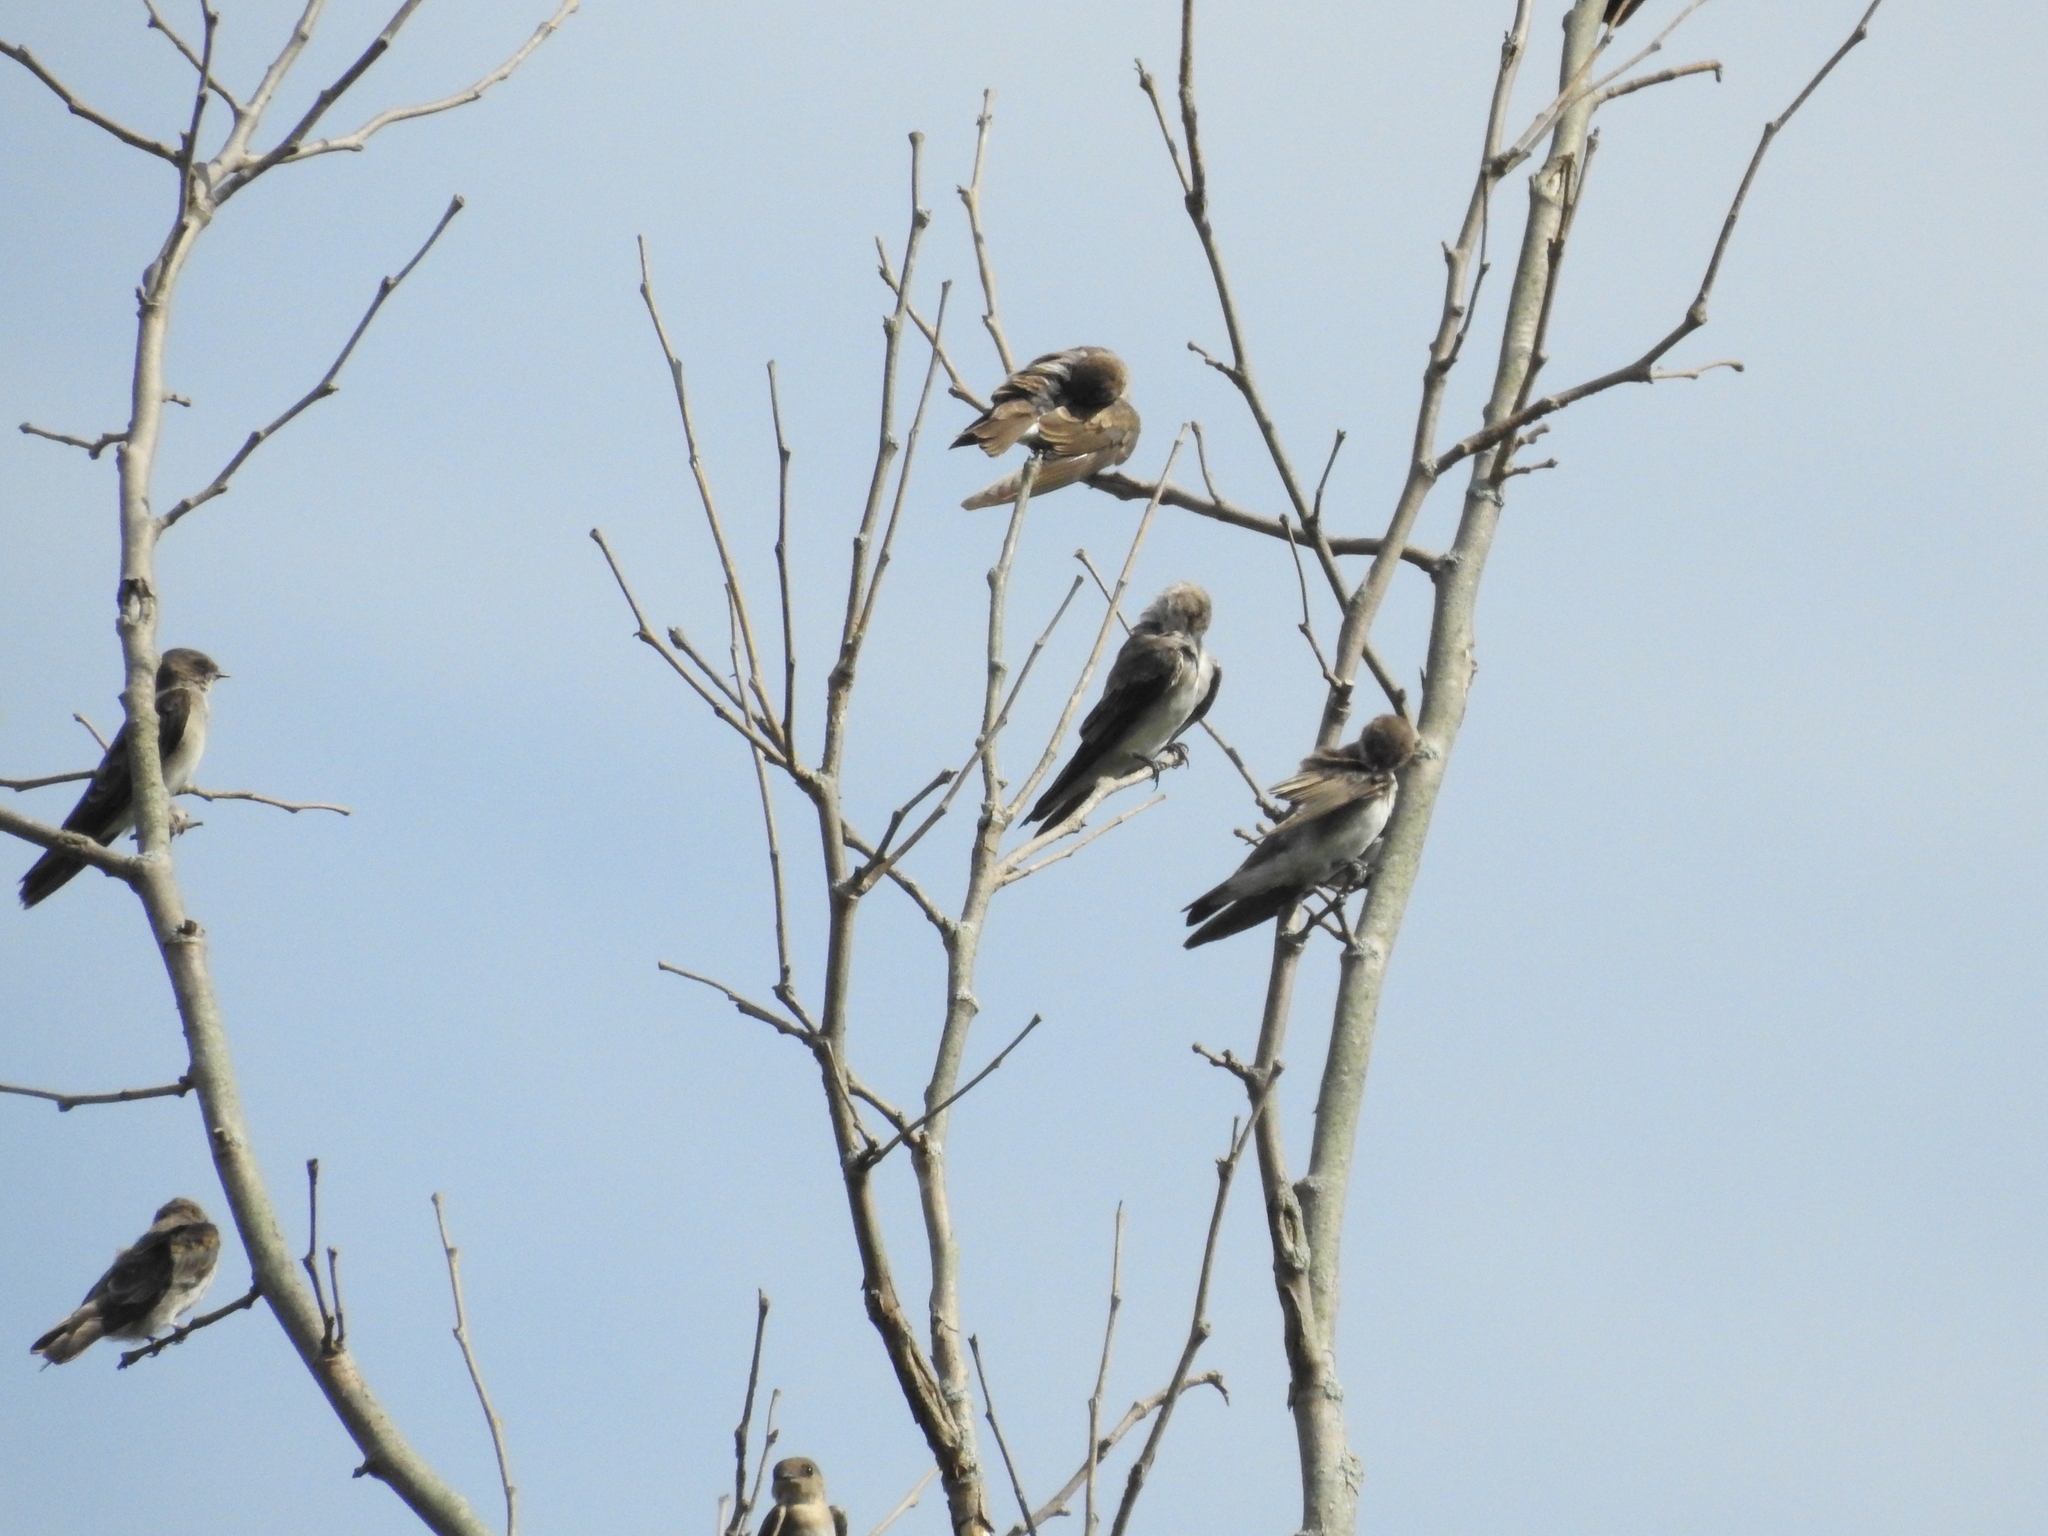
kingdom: Animalia
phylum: Chordata
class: Aves
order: Passeriformes
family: Hirundinidae
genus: Stelgidopteryx
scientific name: Stelgidopteryx serripennis
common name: Northern rough-winged swallow
